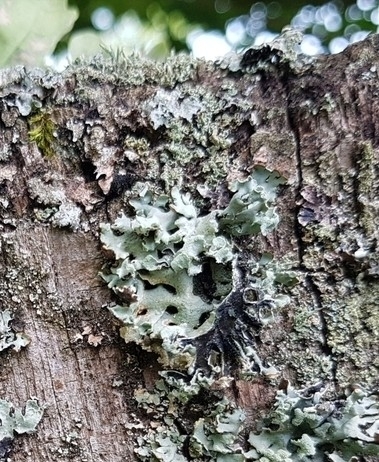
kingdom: Fungi
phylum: Ascomycota
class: Lecanoromycetes
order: Lecanorales
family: Parmeliaceae
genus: Hypogymnia
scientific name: Hypogymnia physodes
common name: Dark crottle
